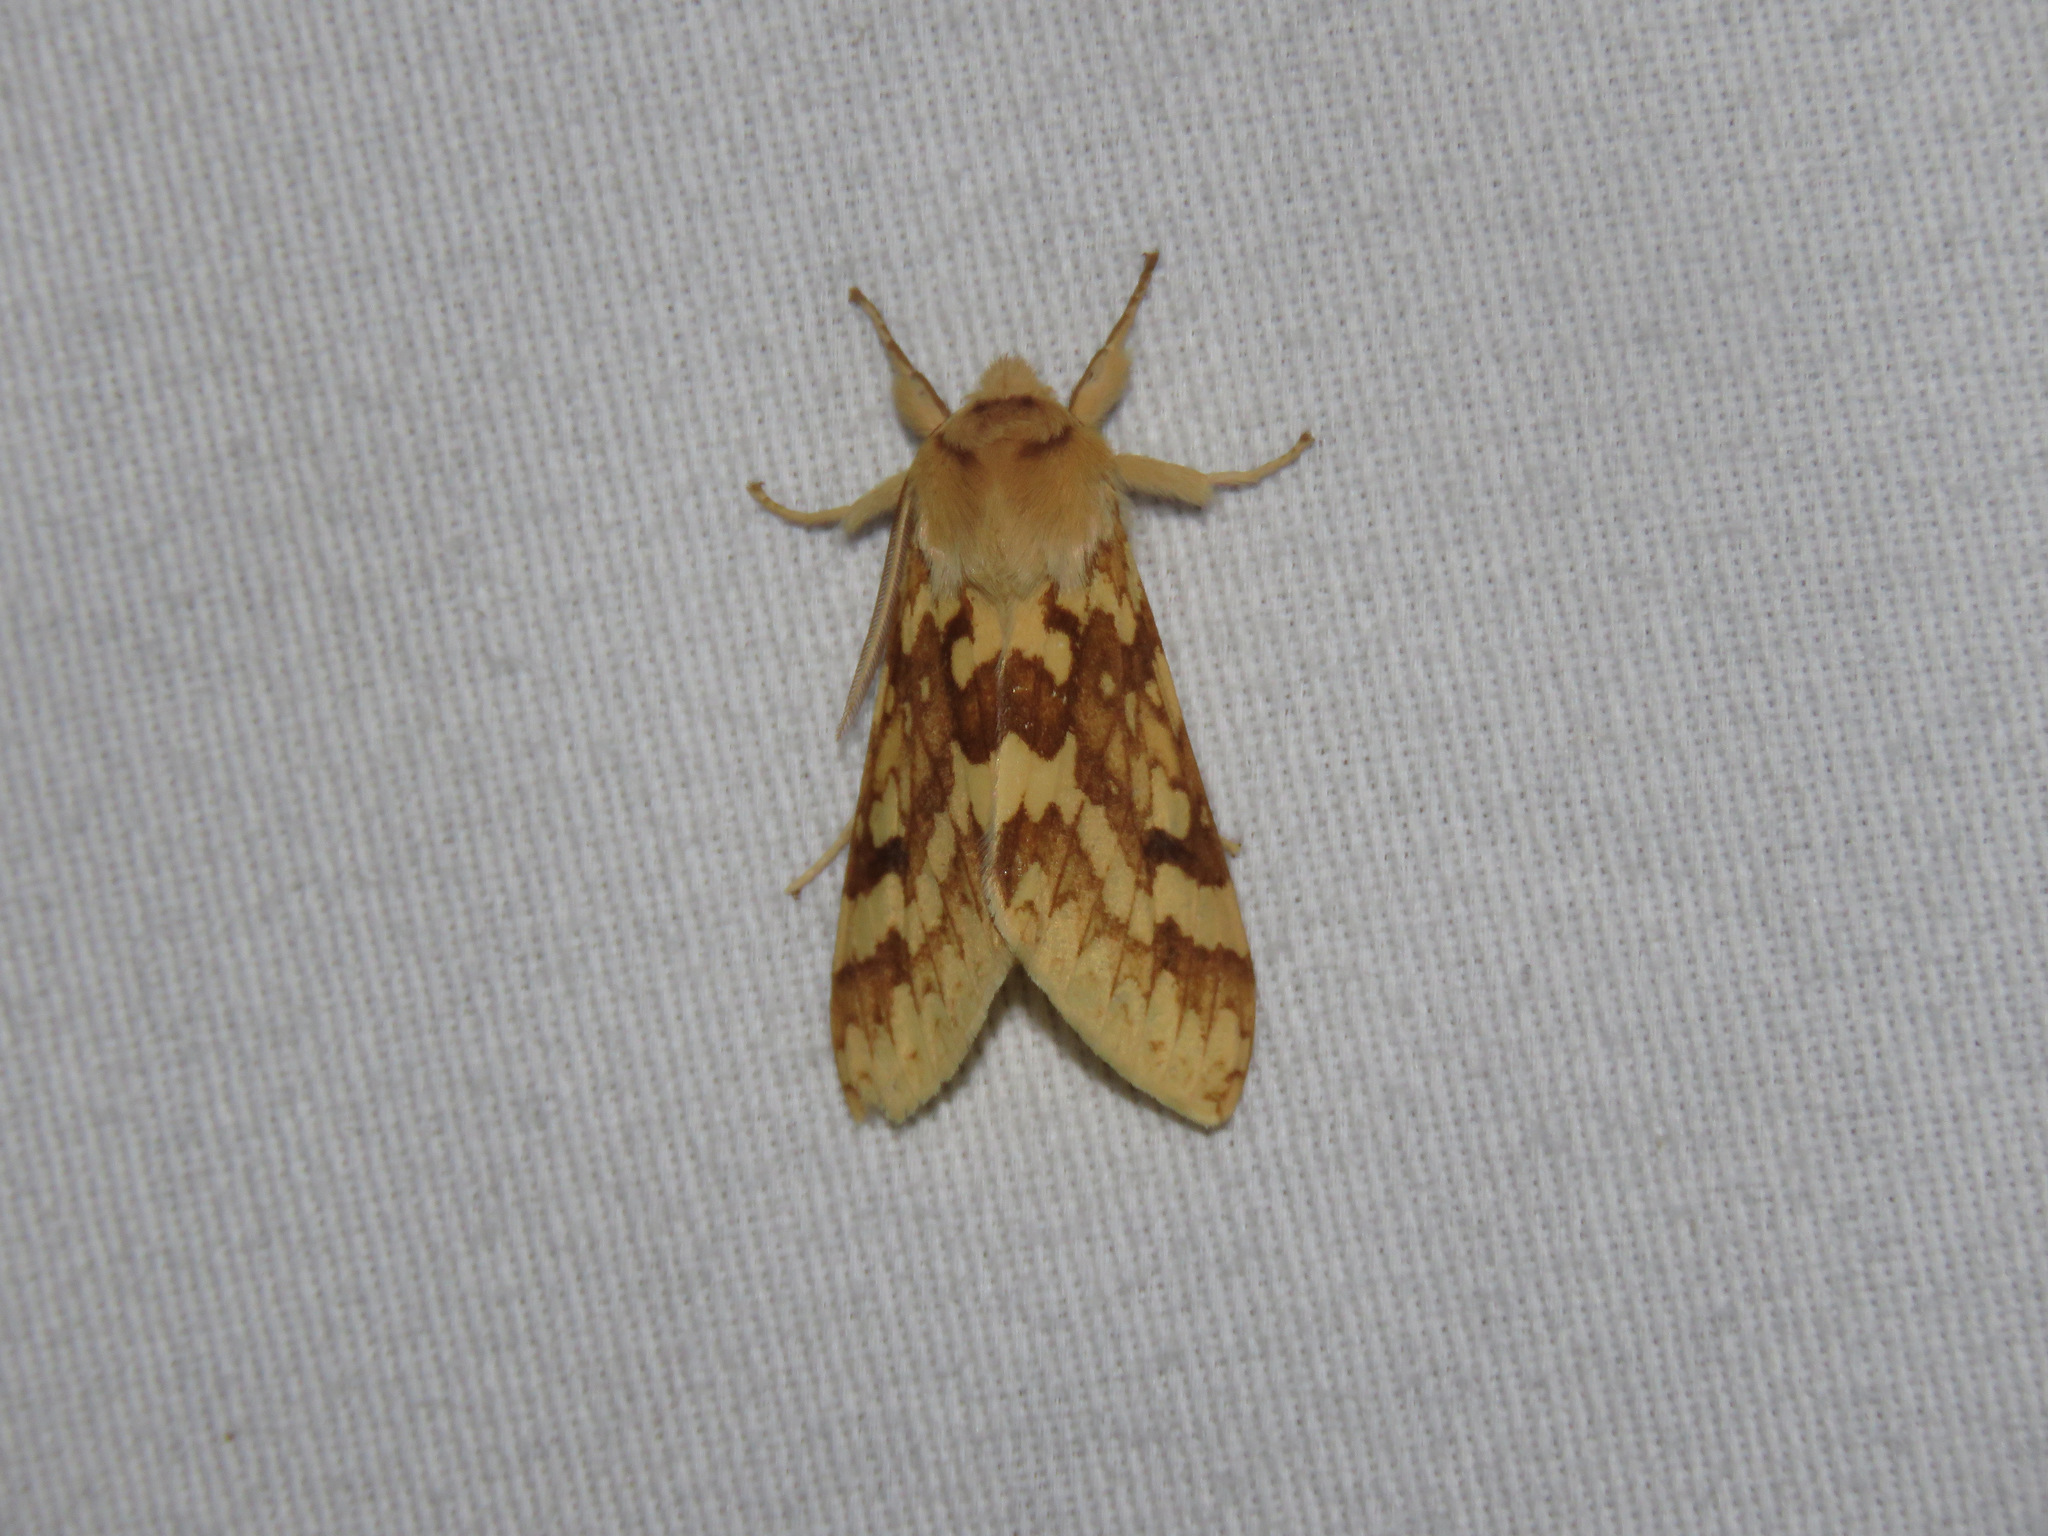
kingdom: Animalia
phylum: Arthropoda
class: Insecta
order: Lepidoptera
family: Erebidae
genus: Lophocampa
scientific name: Lophocampa maculata
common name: Spotted tussock moth
